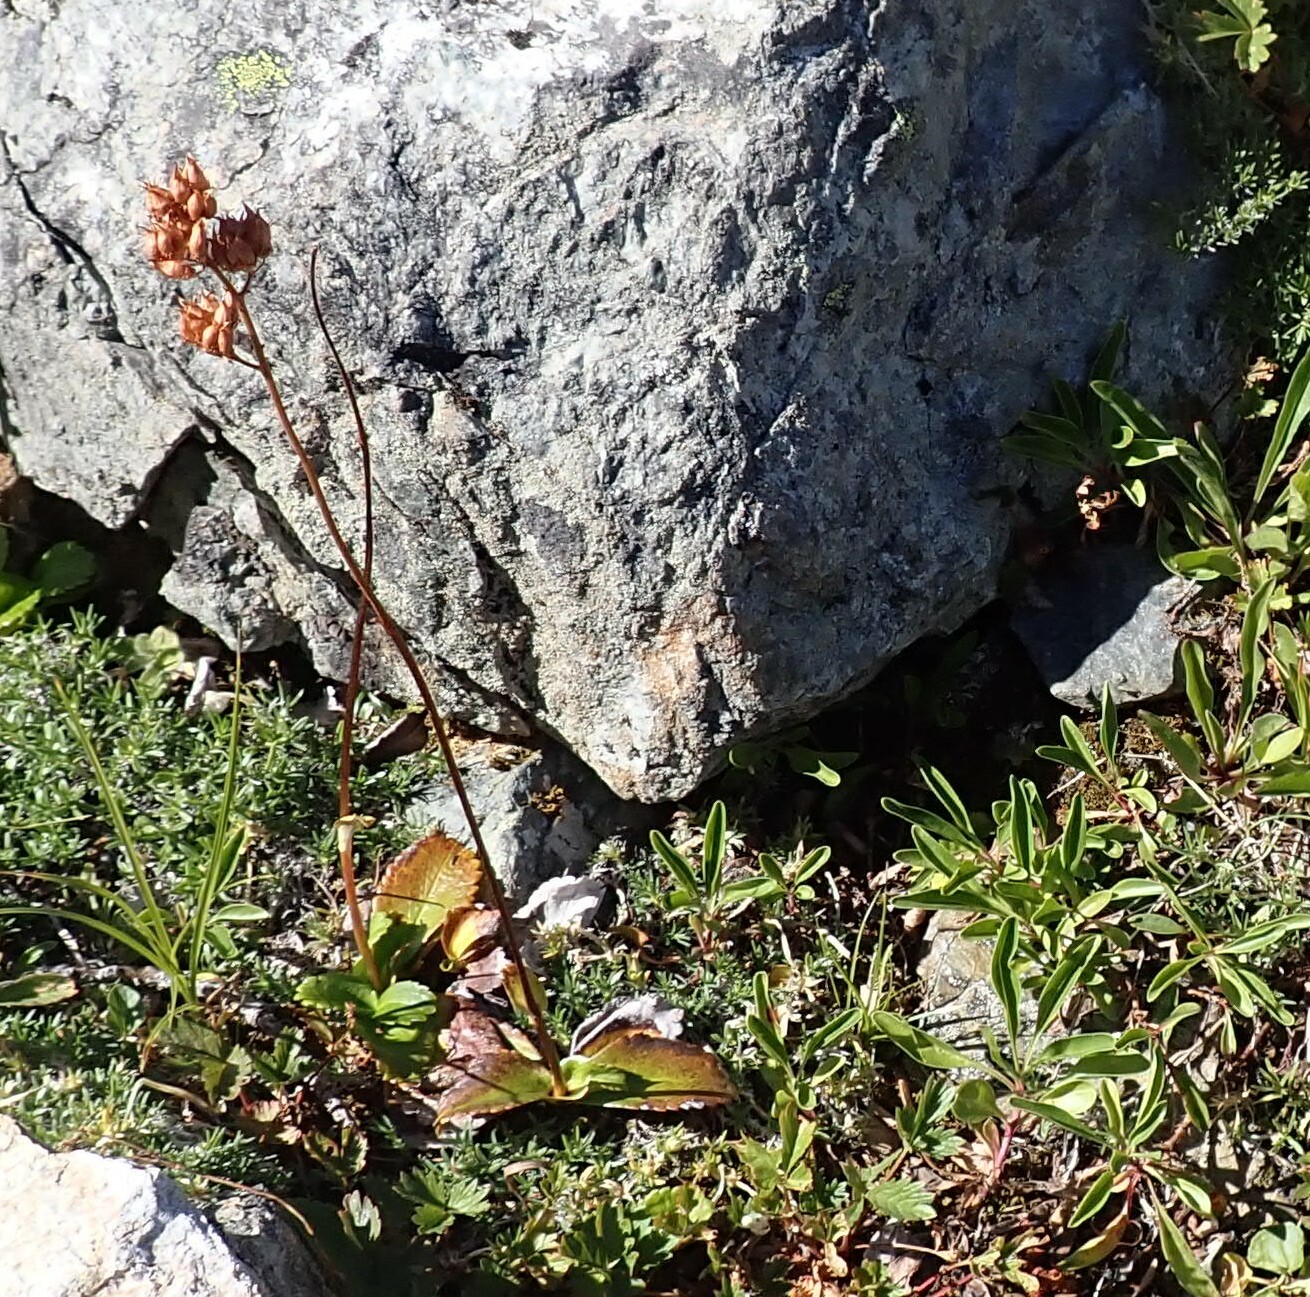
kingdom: Plantae
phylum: Tracheophyta
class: Magnoliopsida
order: Saxifragales
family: Saxifragaceae
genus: Leptarrhena
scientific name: Leptarrhena pyrolifolia
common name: Leatherleaf-saxifrage
